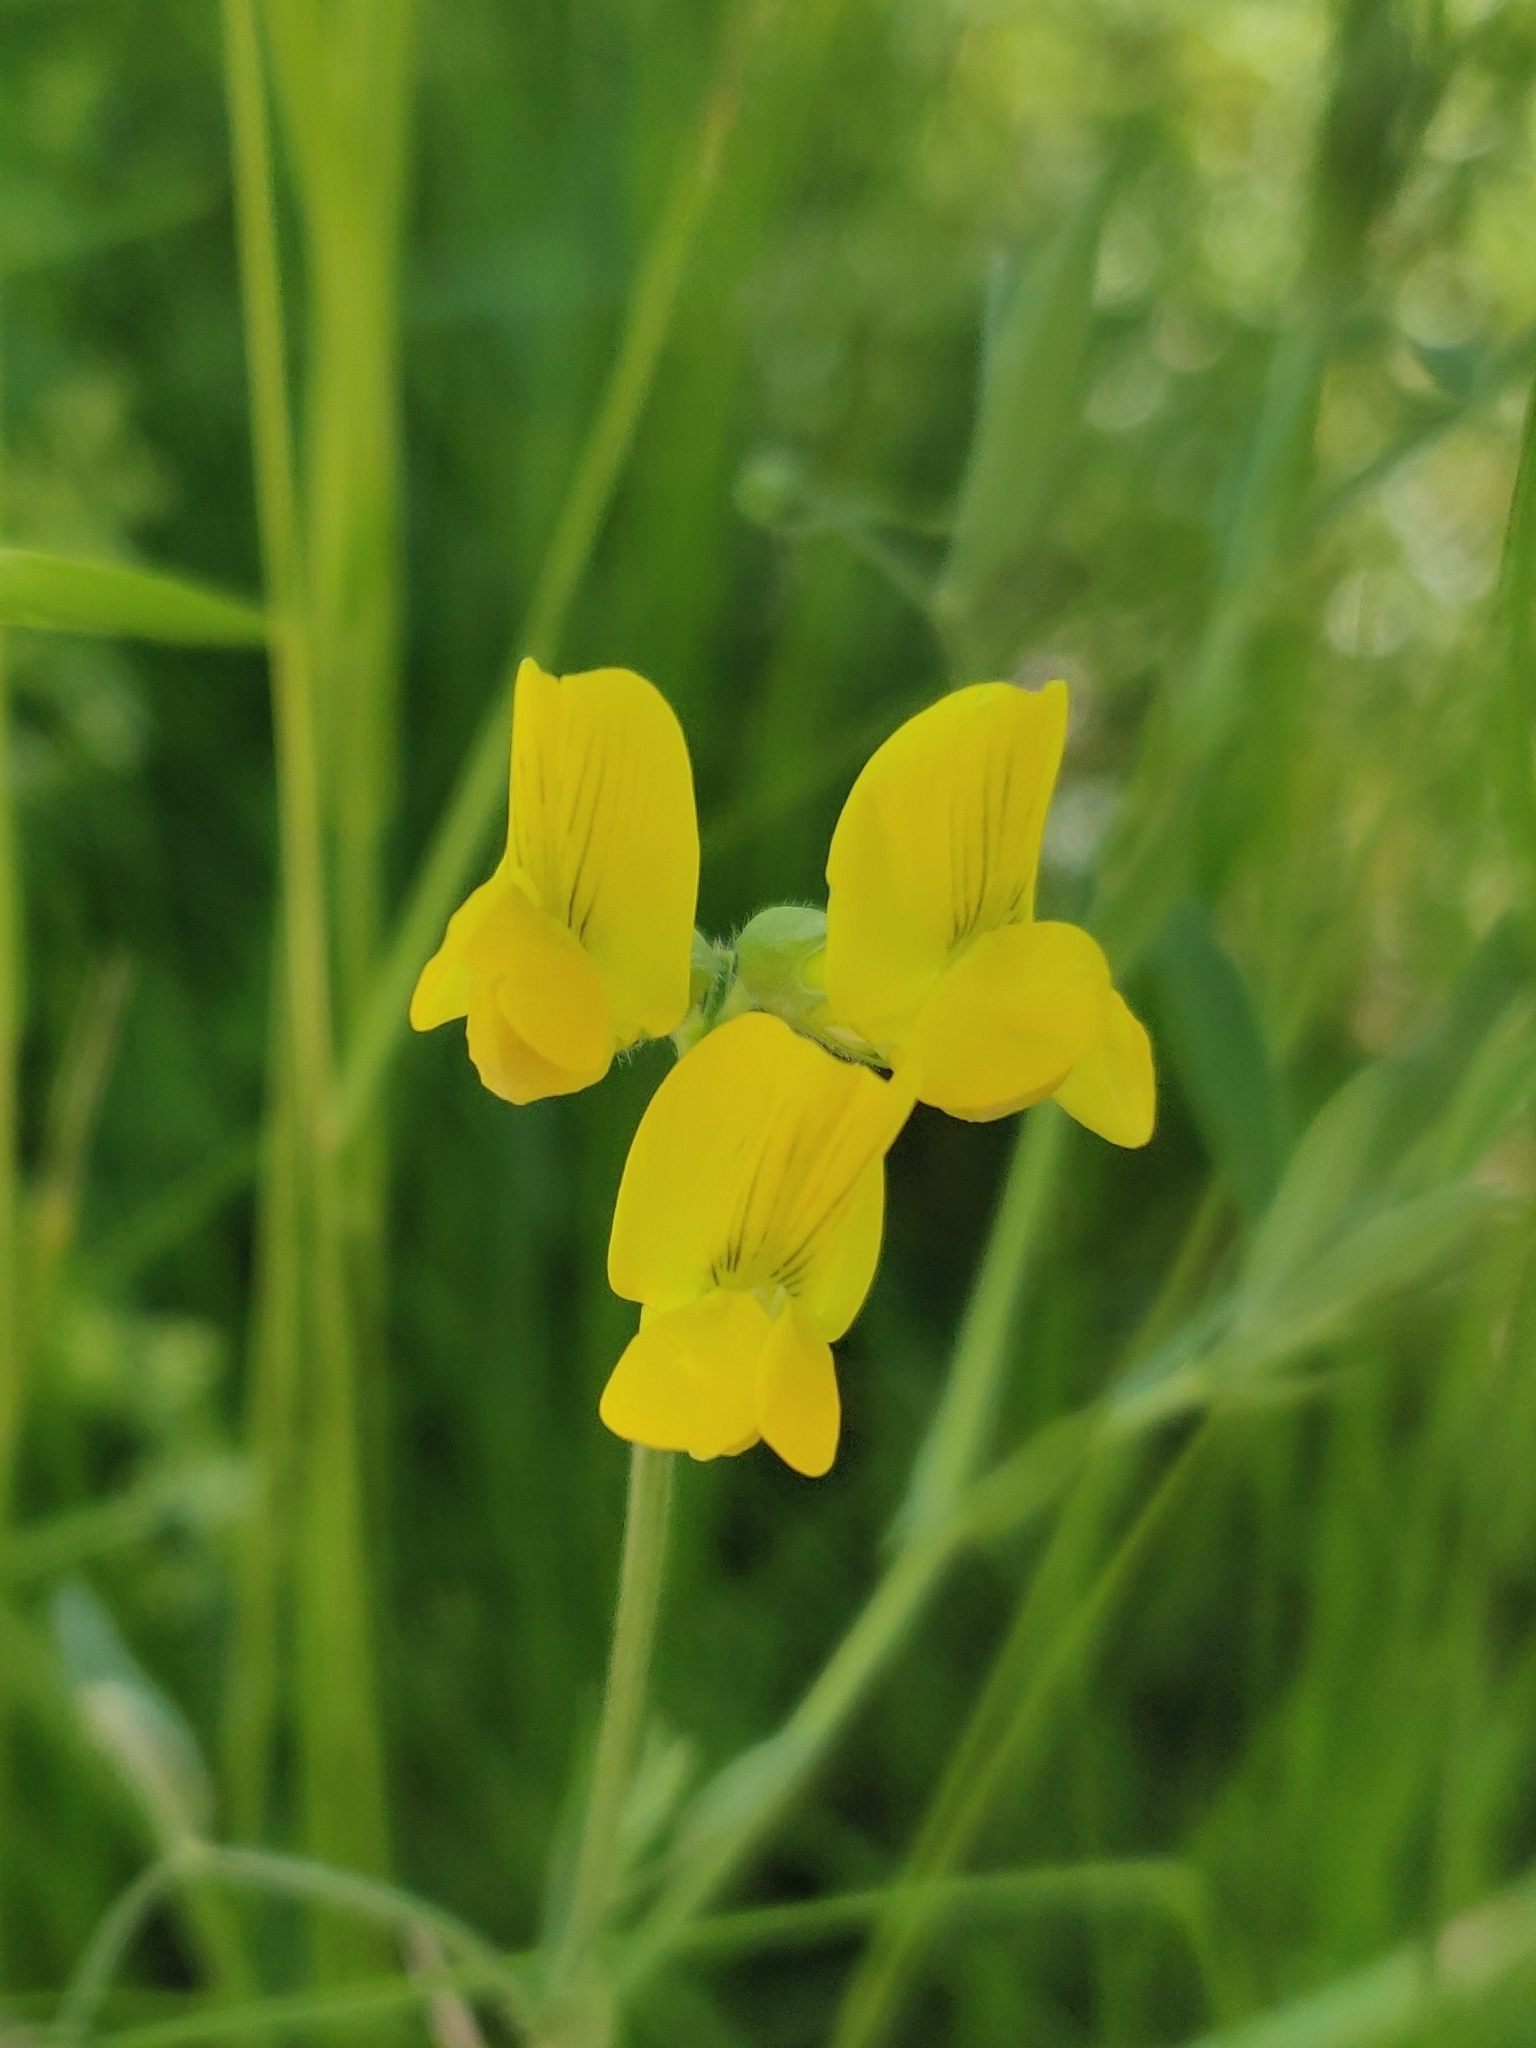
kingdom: Plantae
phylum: Tracheophyta
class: Magnoliopsida
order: Fabales
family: Fabaceae
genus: Lathyrus
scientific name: Lathyrus pratensis
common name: Meadow vetchling
